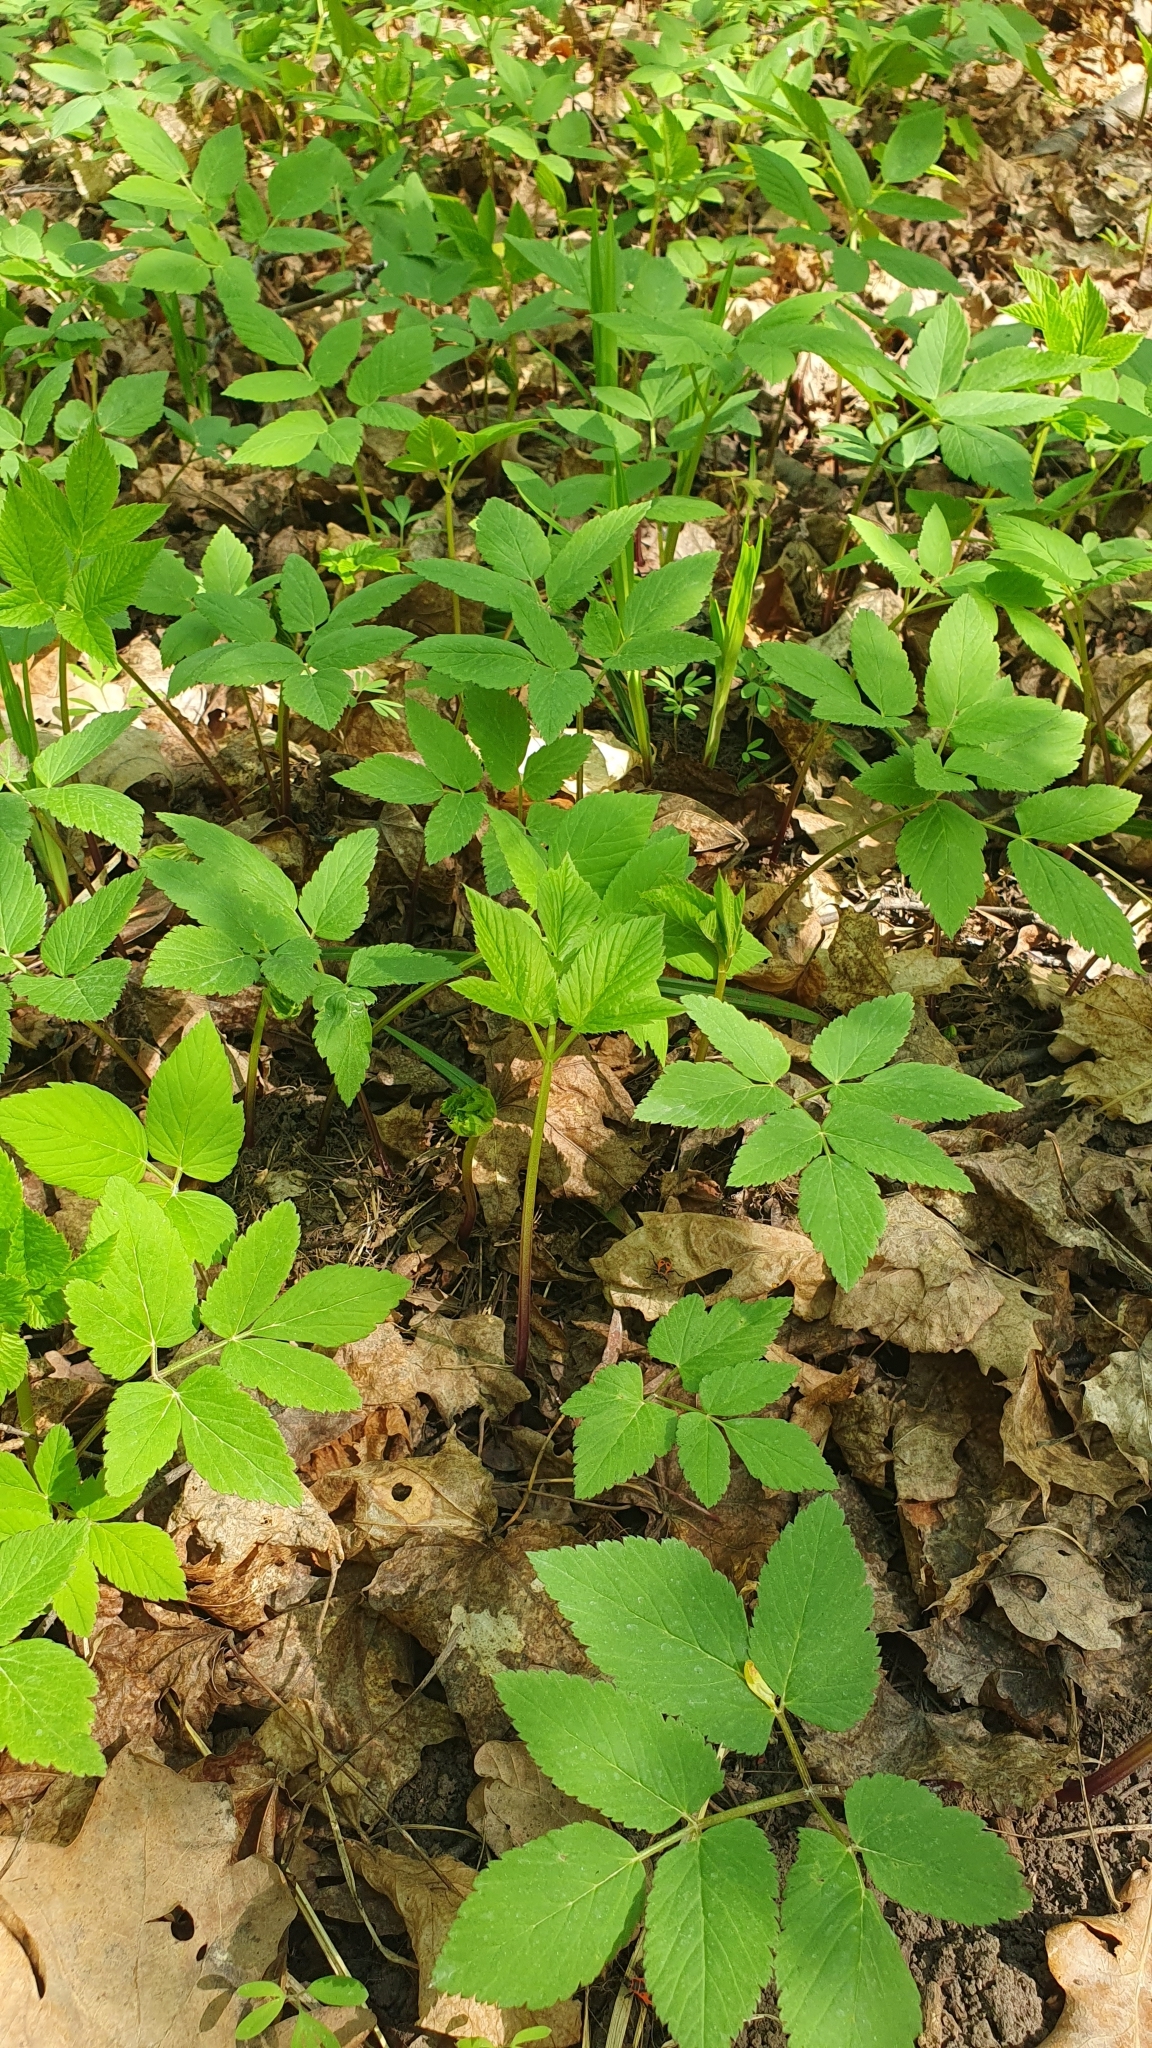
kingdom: Plantae
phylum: Tracheophyta
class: Magnoliopsida
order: Apiales
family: Apiaceae
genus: Aegopodium
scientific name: Aegopodium podagraria
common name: Ground-elder
